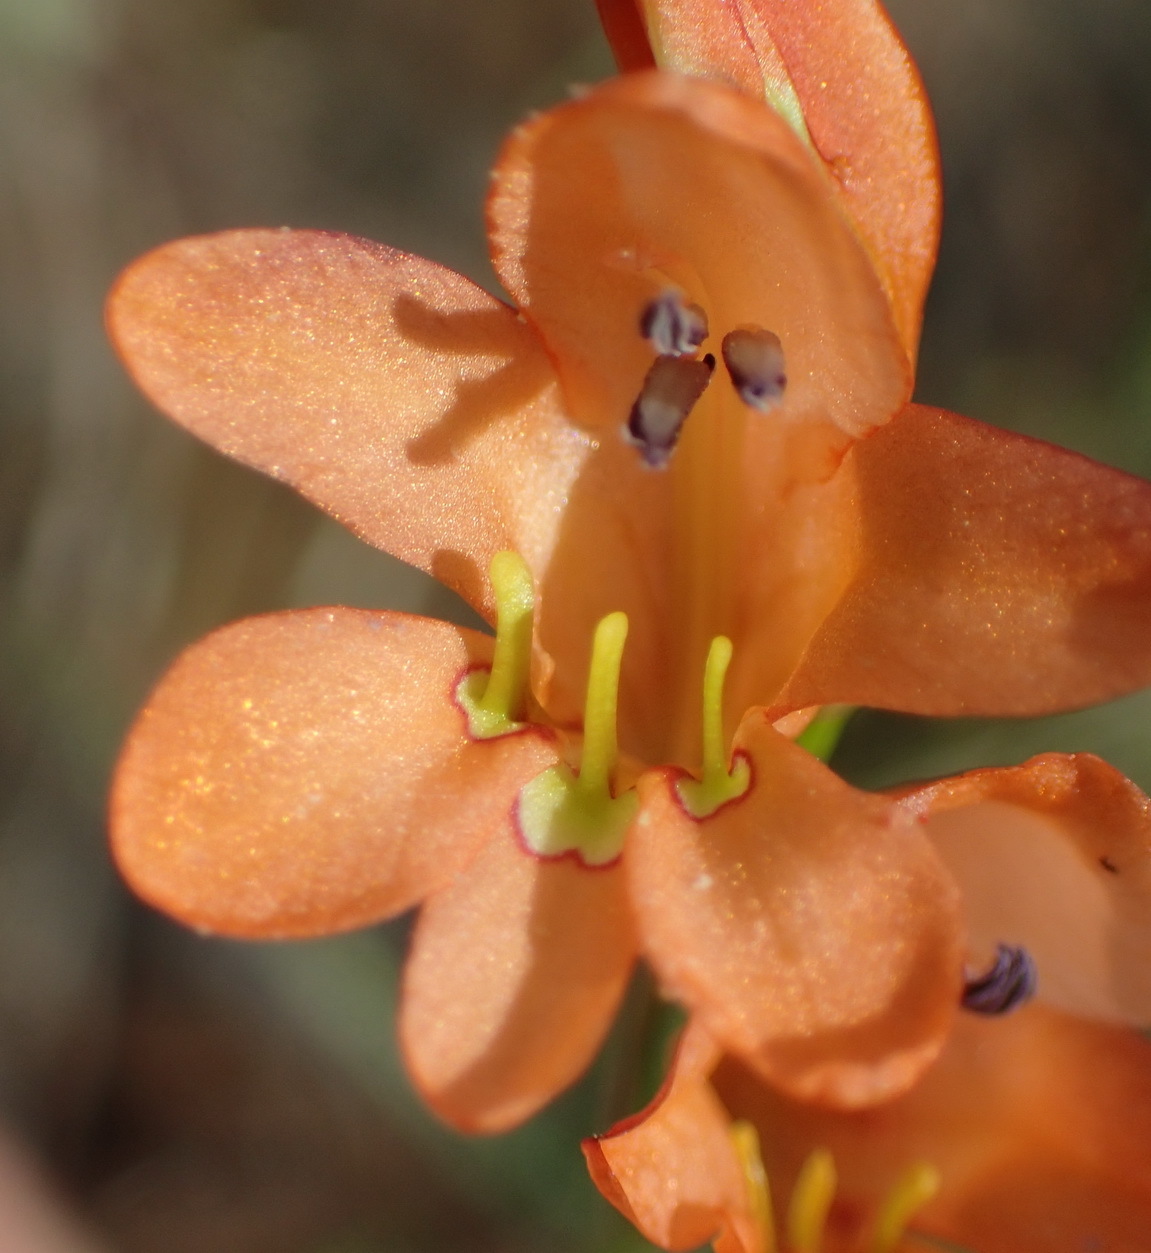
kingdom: Plantae
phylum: Tracheophyta
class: Liliopsida
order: Asparagales
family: Iridaceae
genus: Tritonia
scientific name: Tritonia nelsonii
